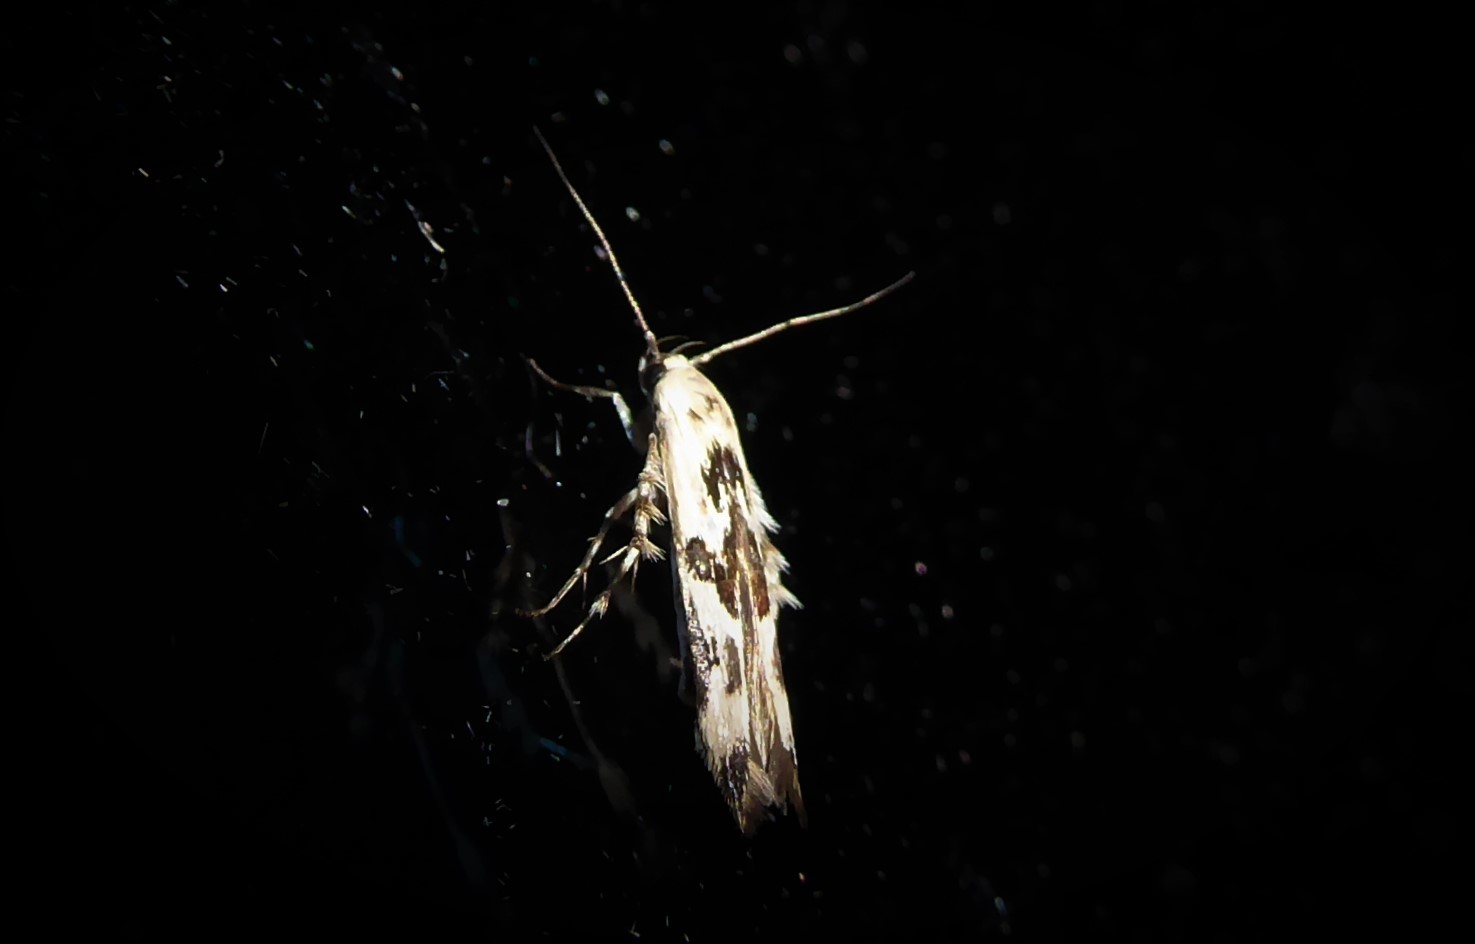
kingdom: Animalia
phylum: Arthropoda
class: Insecta
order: Lepidoptera
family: Stathmopodidae
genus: Stathmopoda
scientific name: Stathmopoda melanochra
